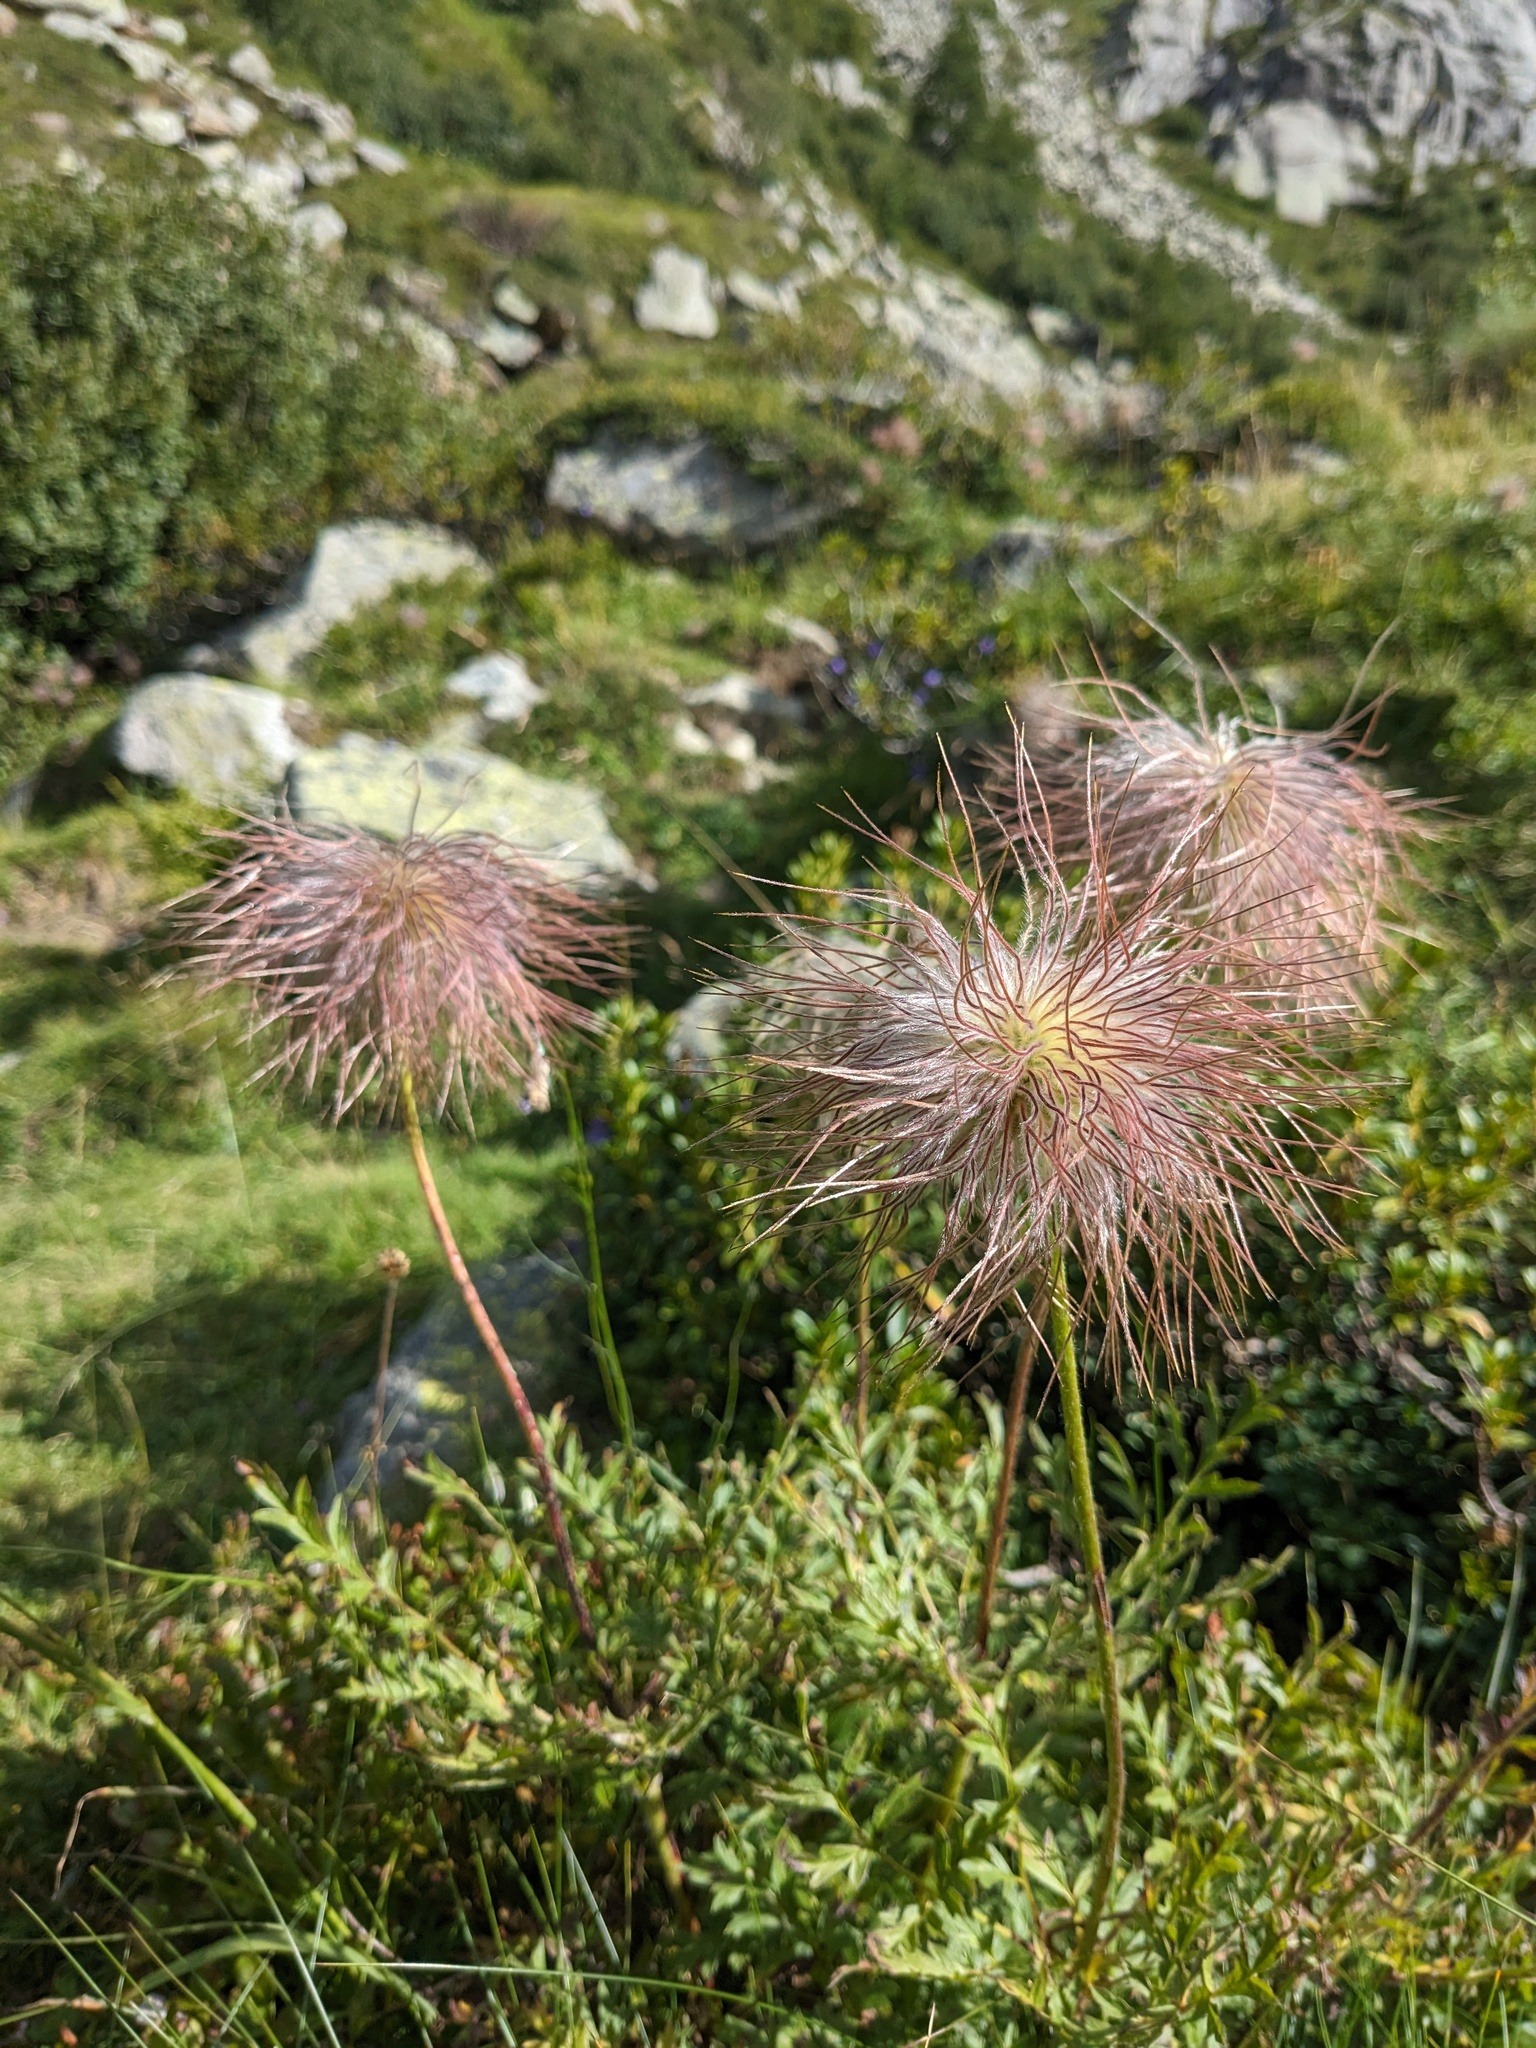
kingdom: Plantae
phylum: Tracheophyta
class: Magnoliopsida
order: Ranunculales
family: Ranunculaceae
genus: Pulsatilla
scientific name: Pulsatilla alpina
